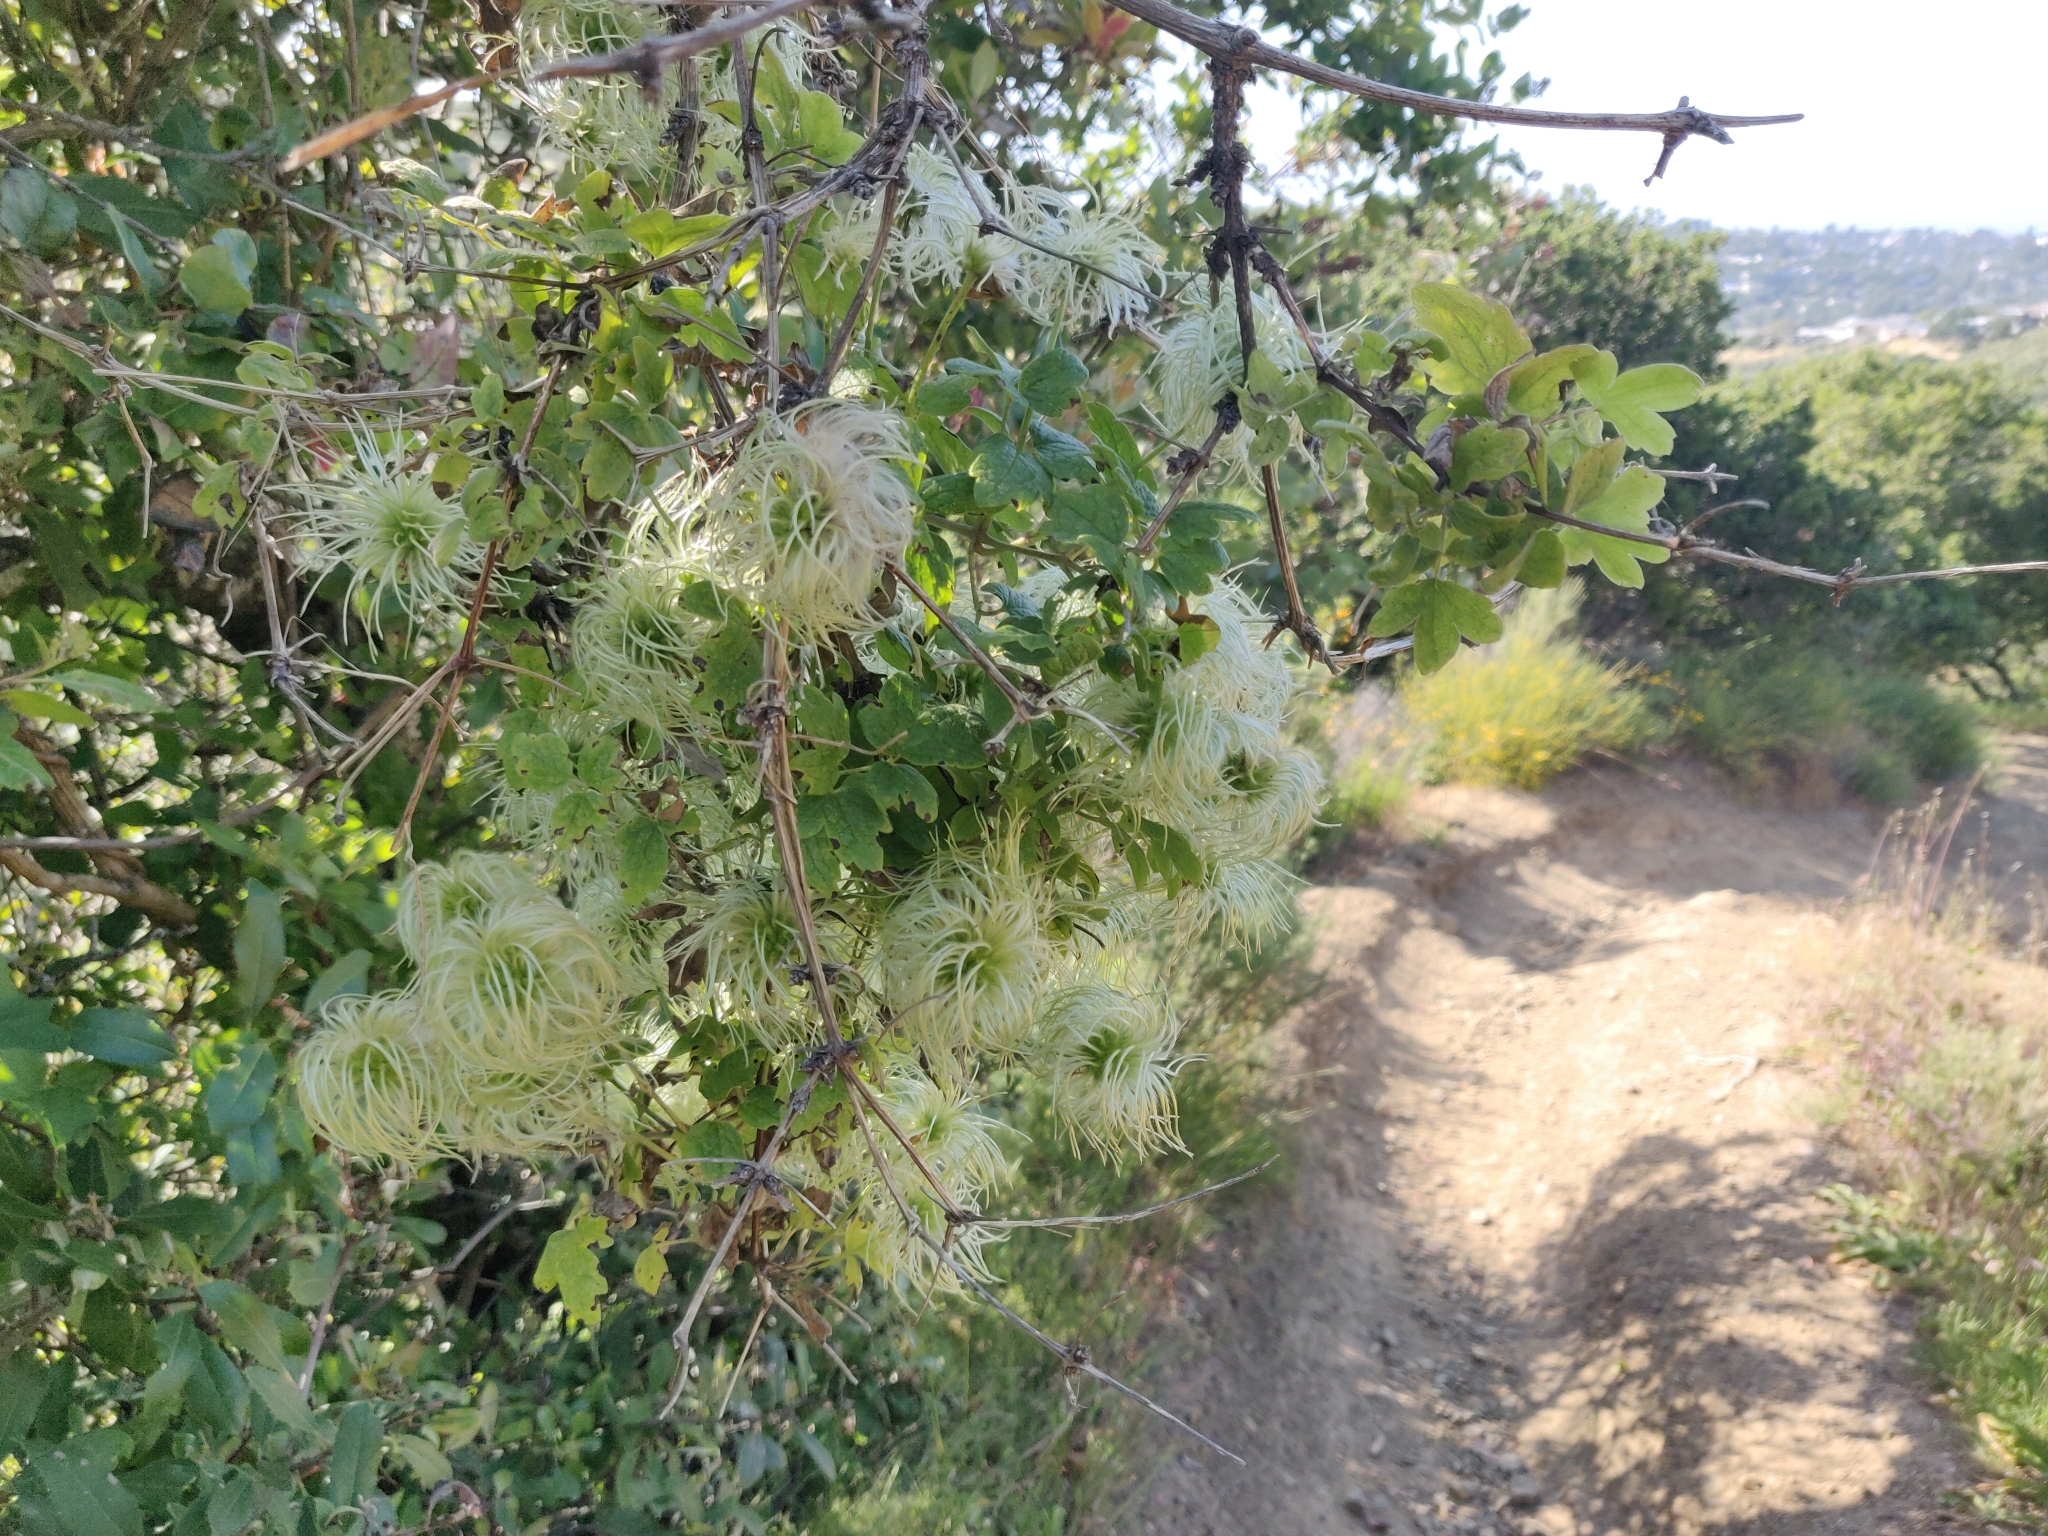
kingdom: Plantae
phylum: Tracheophyta
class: Magnoliopsida
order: Ranunculales
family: Ranunculaceae
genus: Clematis
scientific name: Clematis lasiantha
